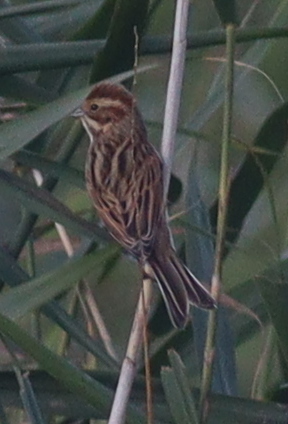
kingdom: Animalia
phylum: Chordata
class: Aves
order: Passeriformes
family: Emberizidae
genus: Emberiza
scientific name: Emberiza schoeniclus
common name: Reed bunting
